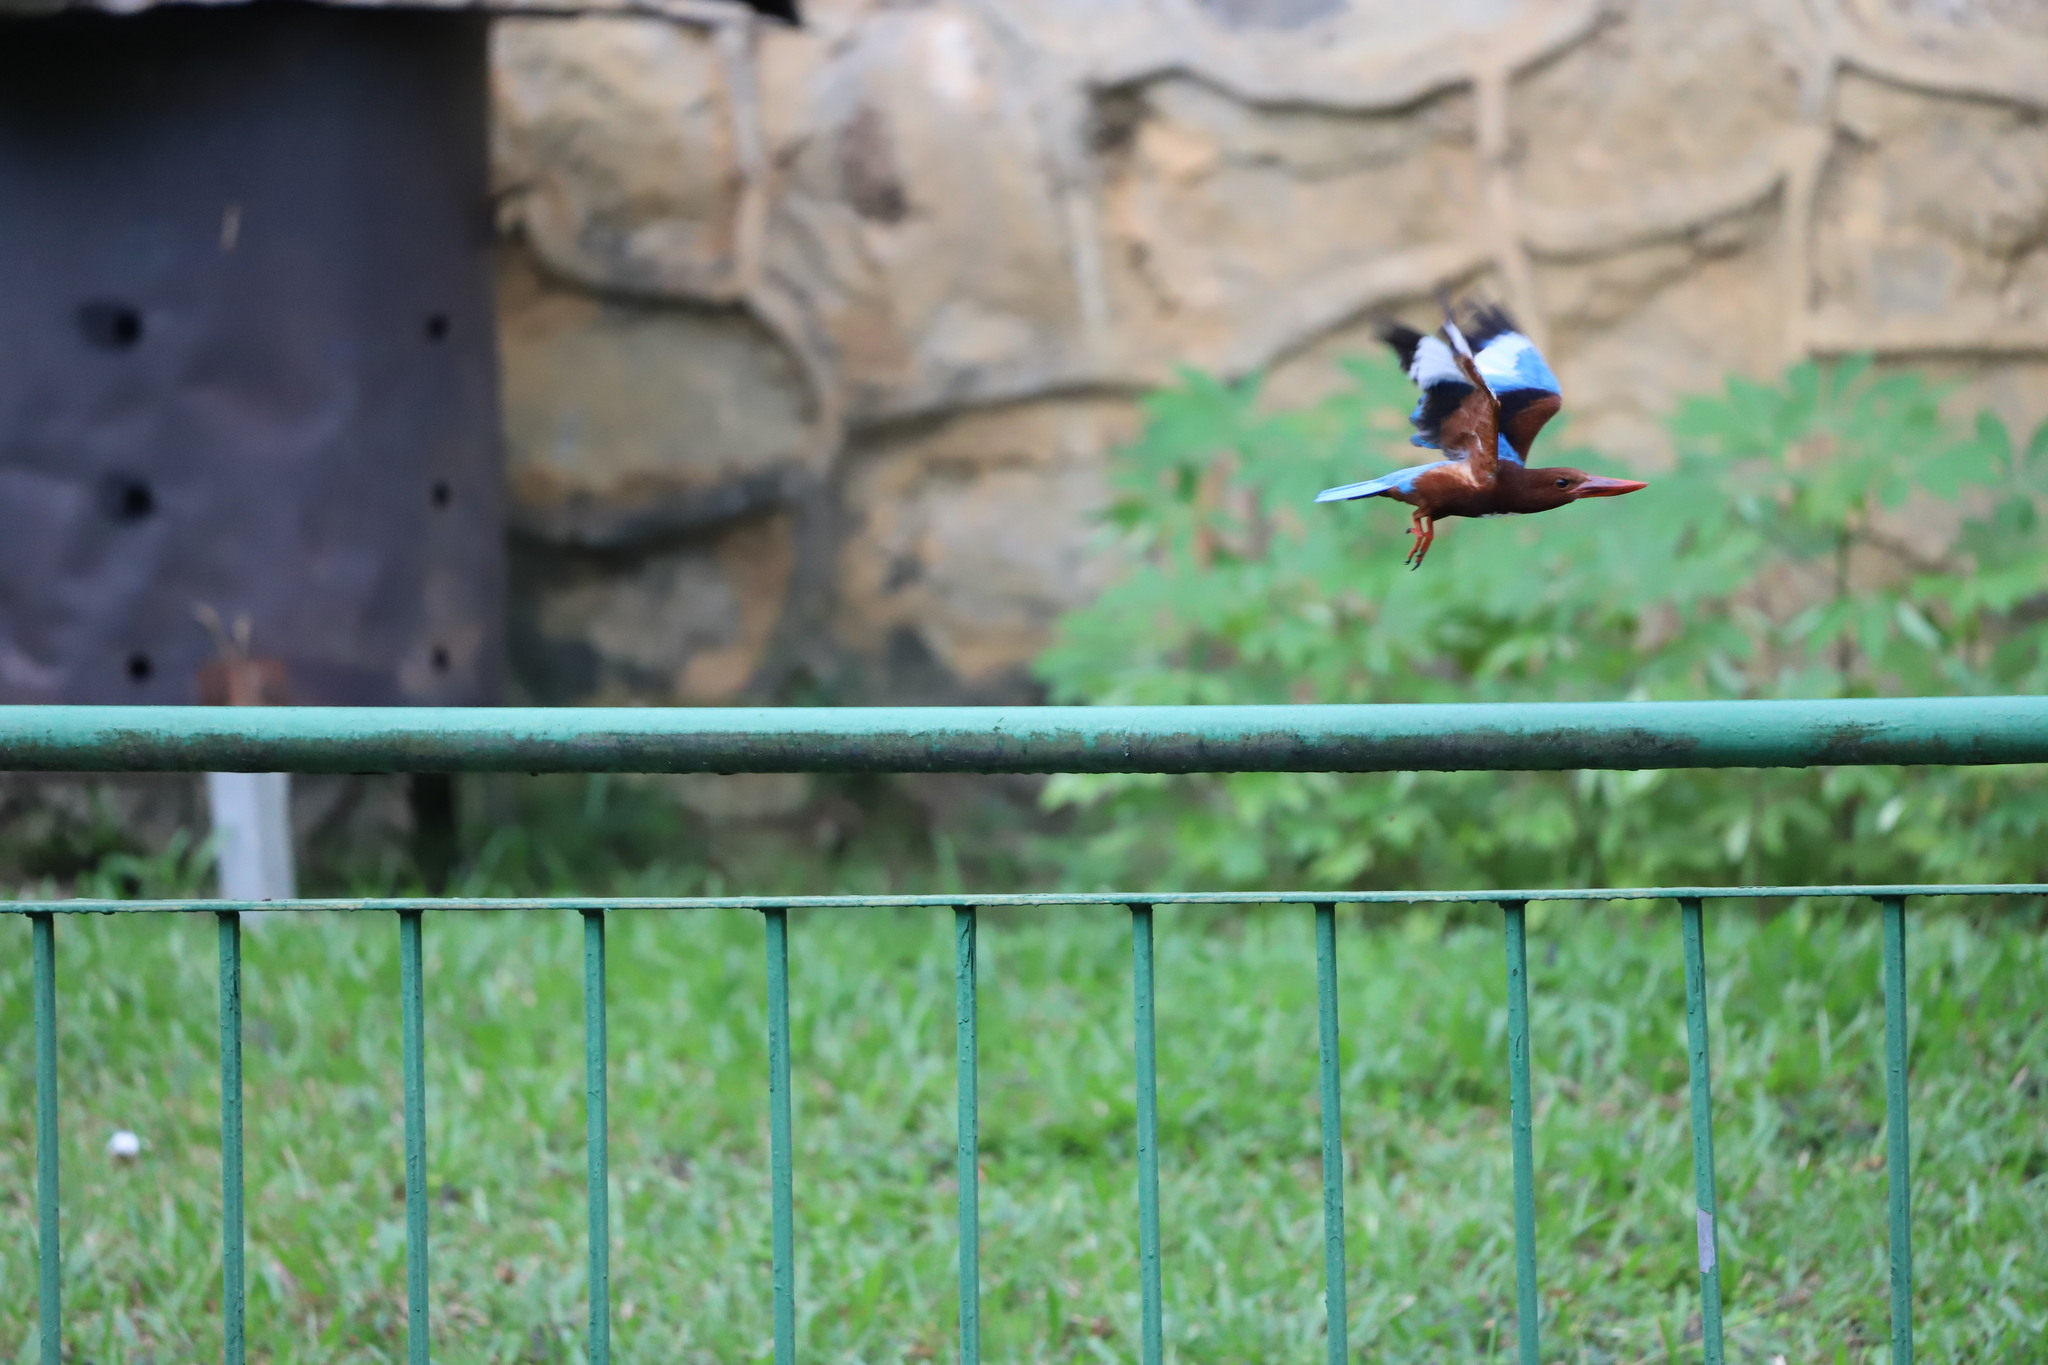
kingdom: Animalia
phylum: Chordata
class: Aves
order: Coraciiformes
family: Alcedinidae
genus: Halcyon
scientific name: Halcyon smyrnensis
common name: White-throated kingfisher
